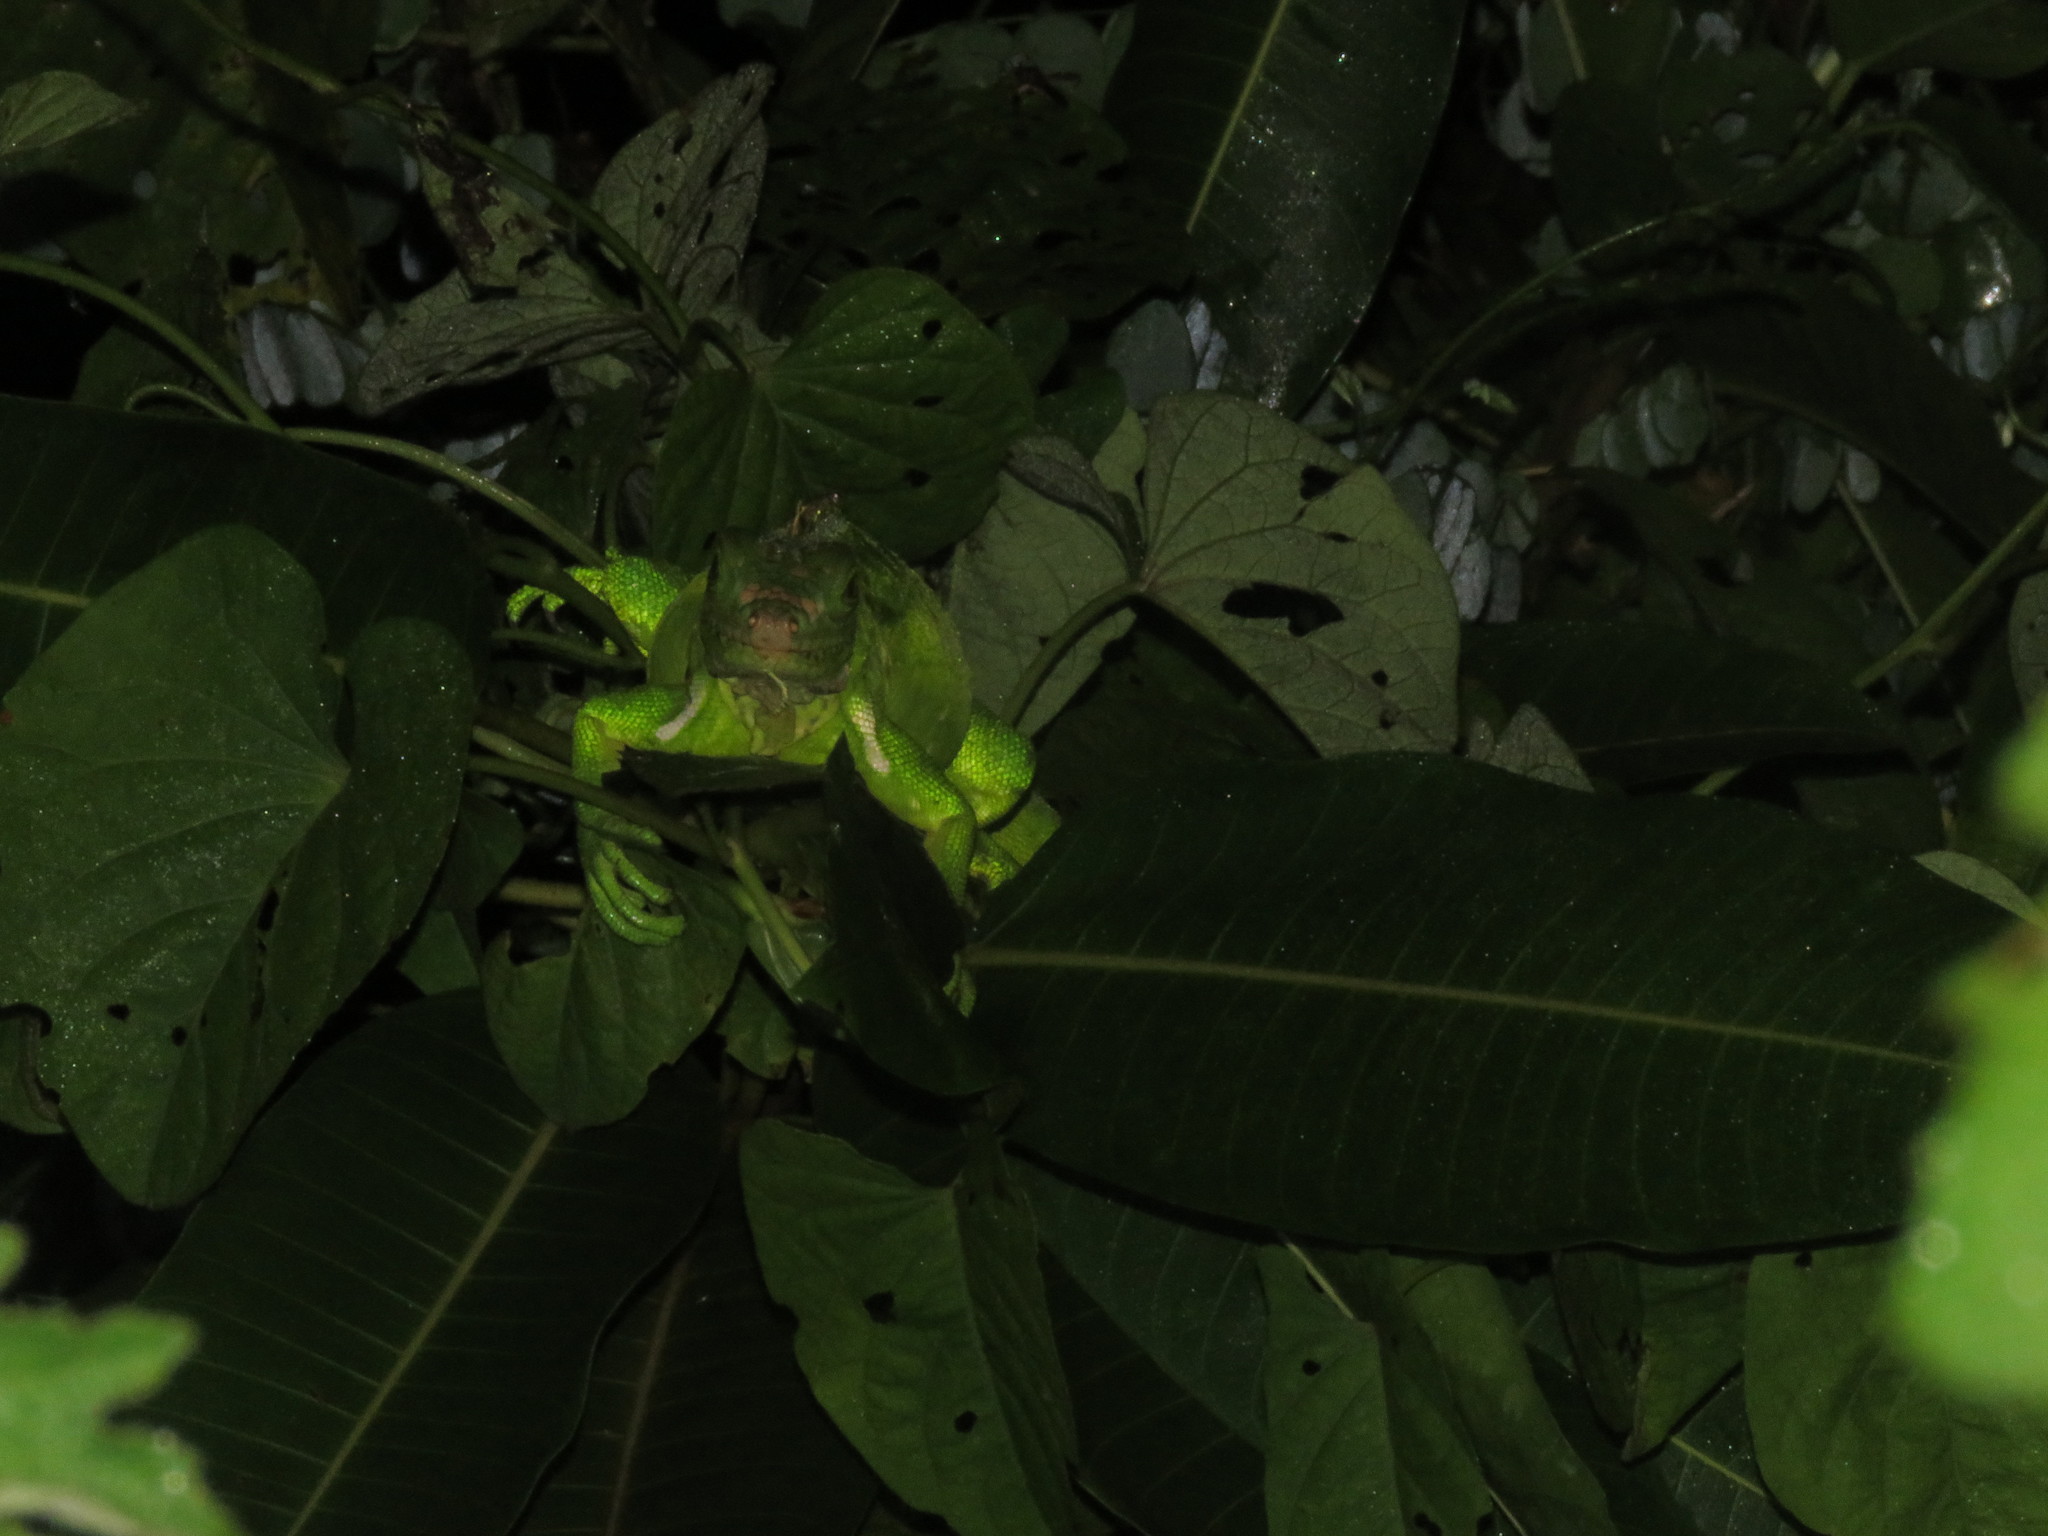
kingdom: Animalia
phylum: Chordata
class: Squamata
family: Iguanidae
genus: Iguana
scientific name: Iguana iguana
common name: Green iguana
